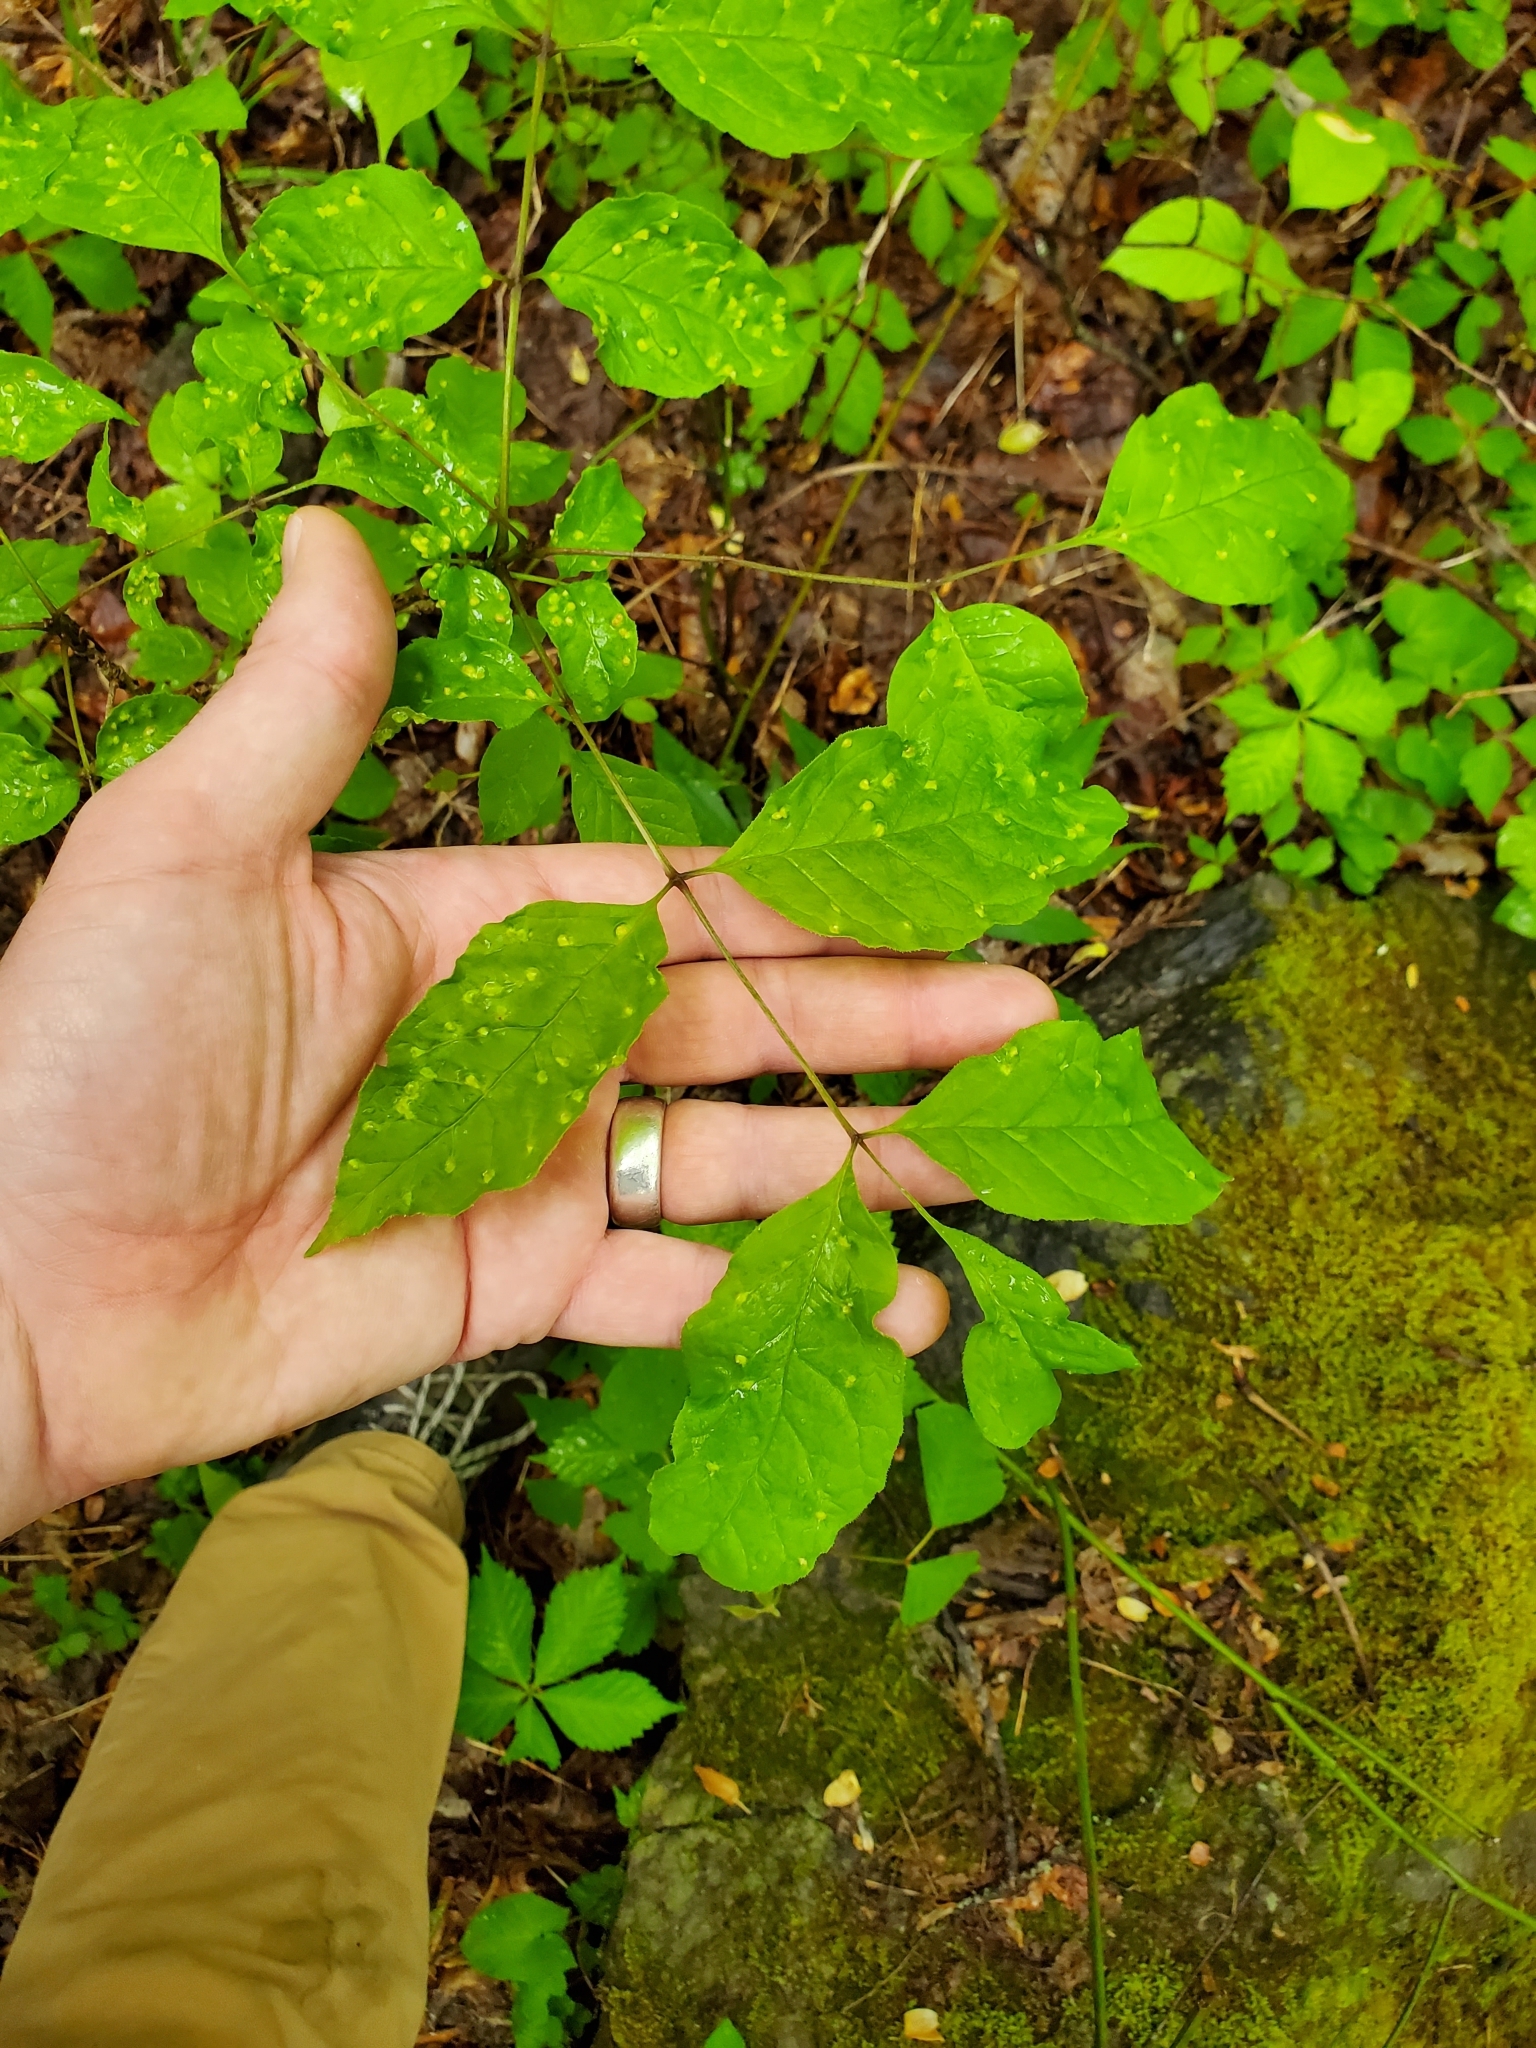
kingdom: Animalia
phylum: Arthropoda
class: Arachnida
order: Trombidiformes
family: Eriophyidae
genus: Aceria
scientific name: Aceria fraxinicola
